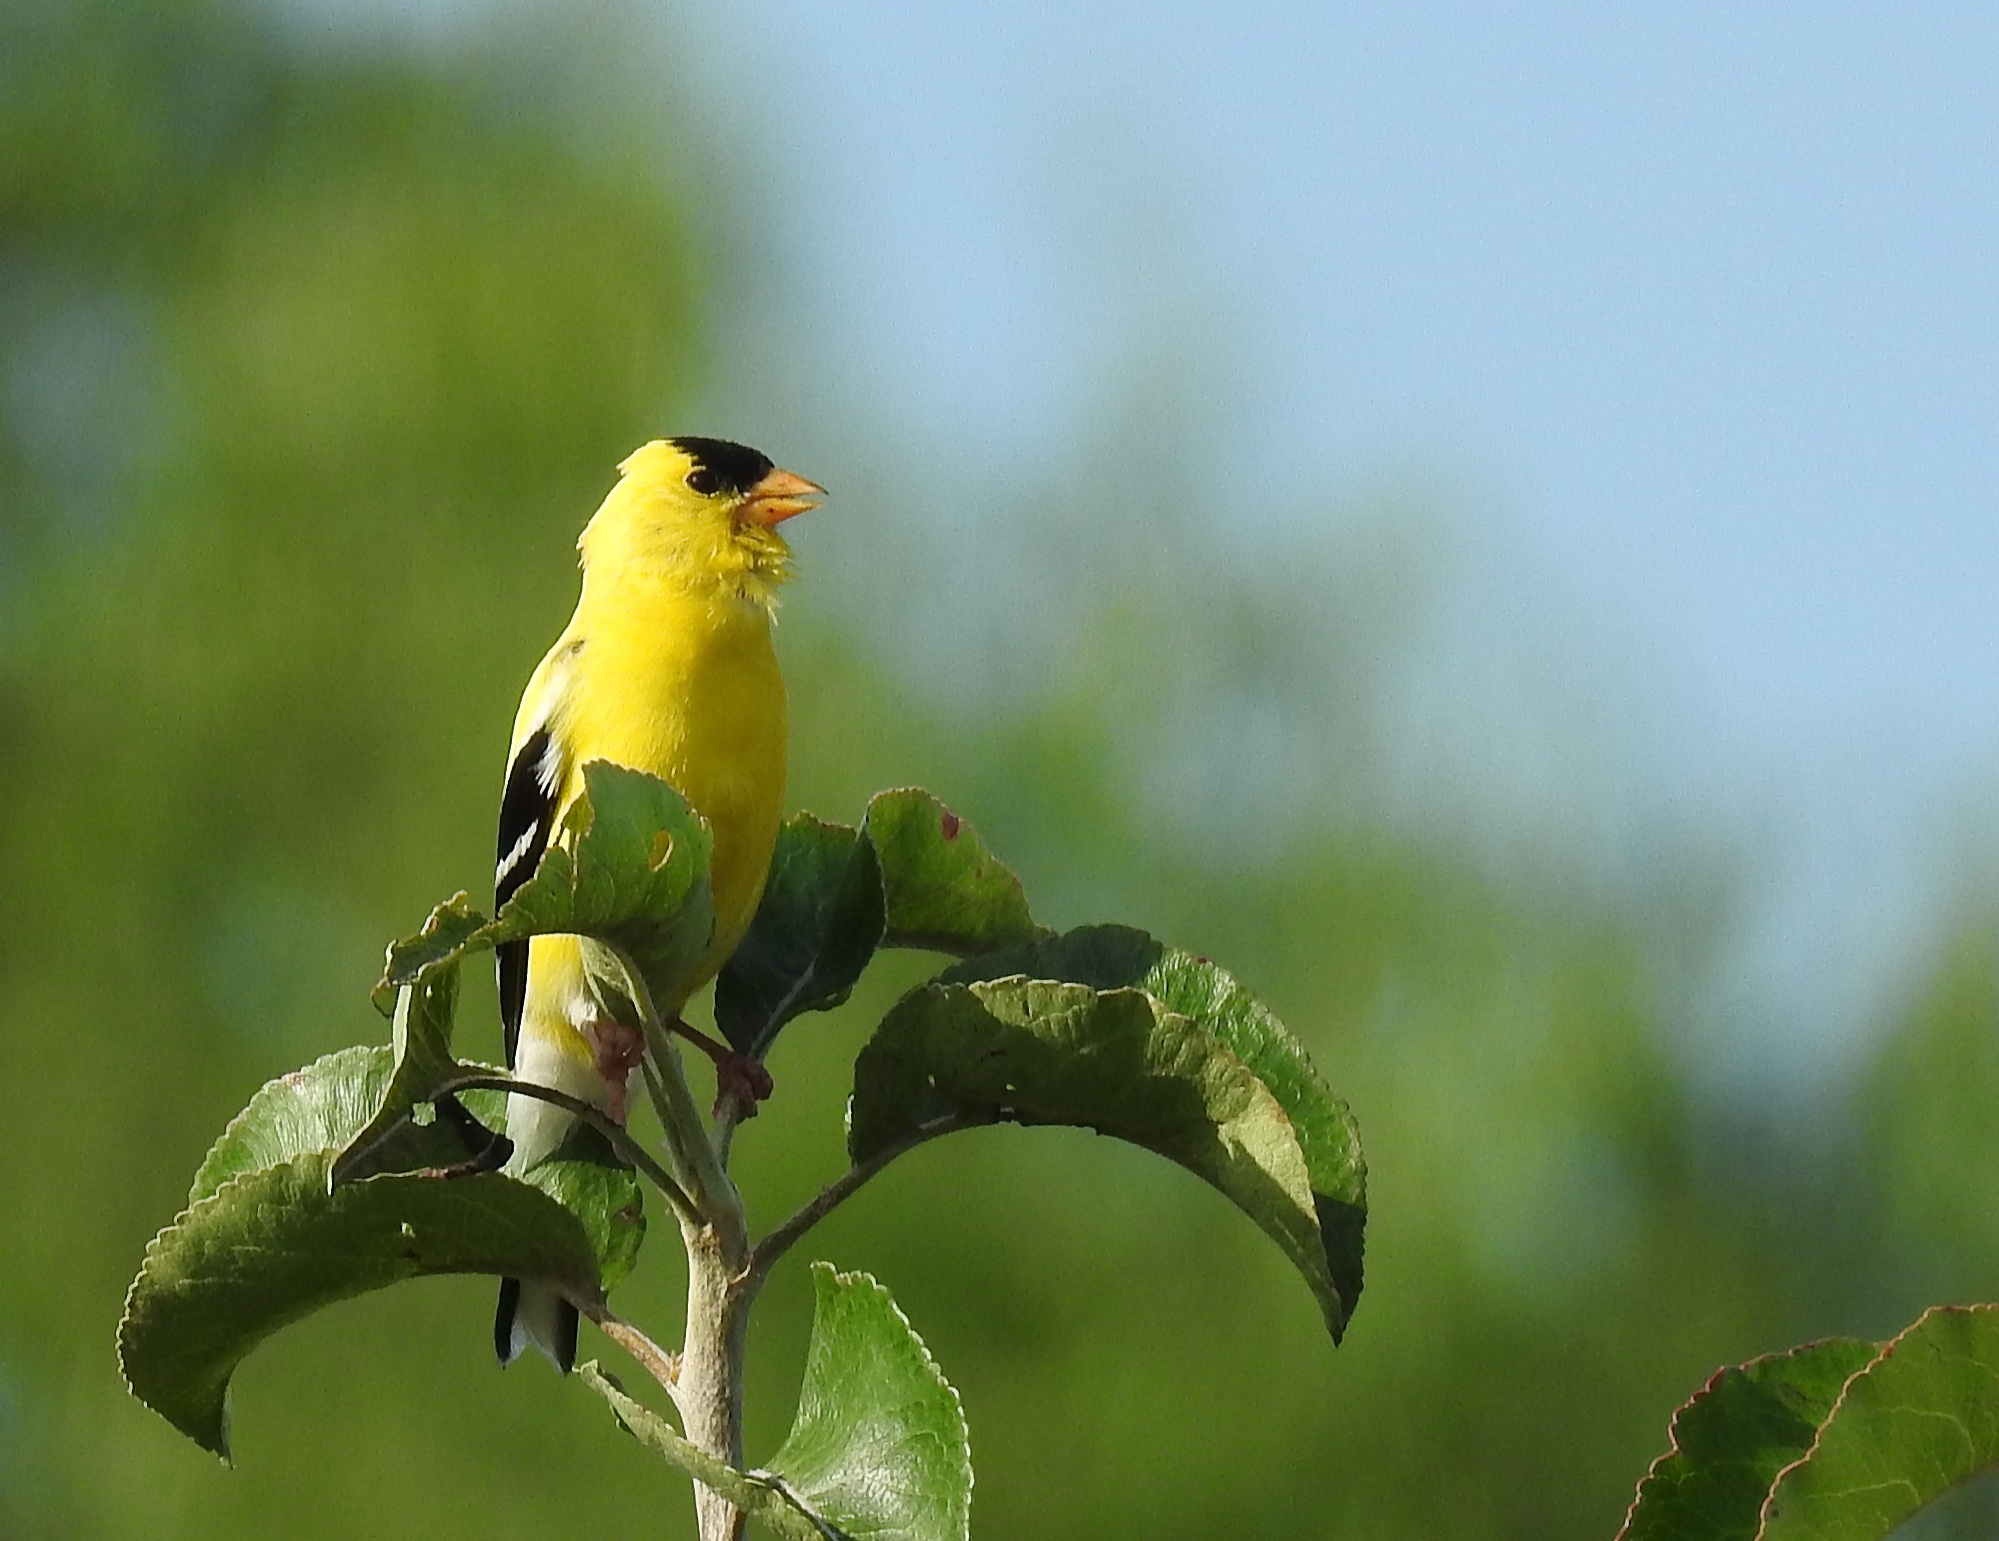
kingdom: Animalia
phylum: Chordata
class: Aves
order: Passeriformes
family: Fringillidae
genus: Spinus
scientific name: Spinus tristis
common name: American goldfinch
